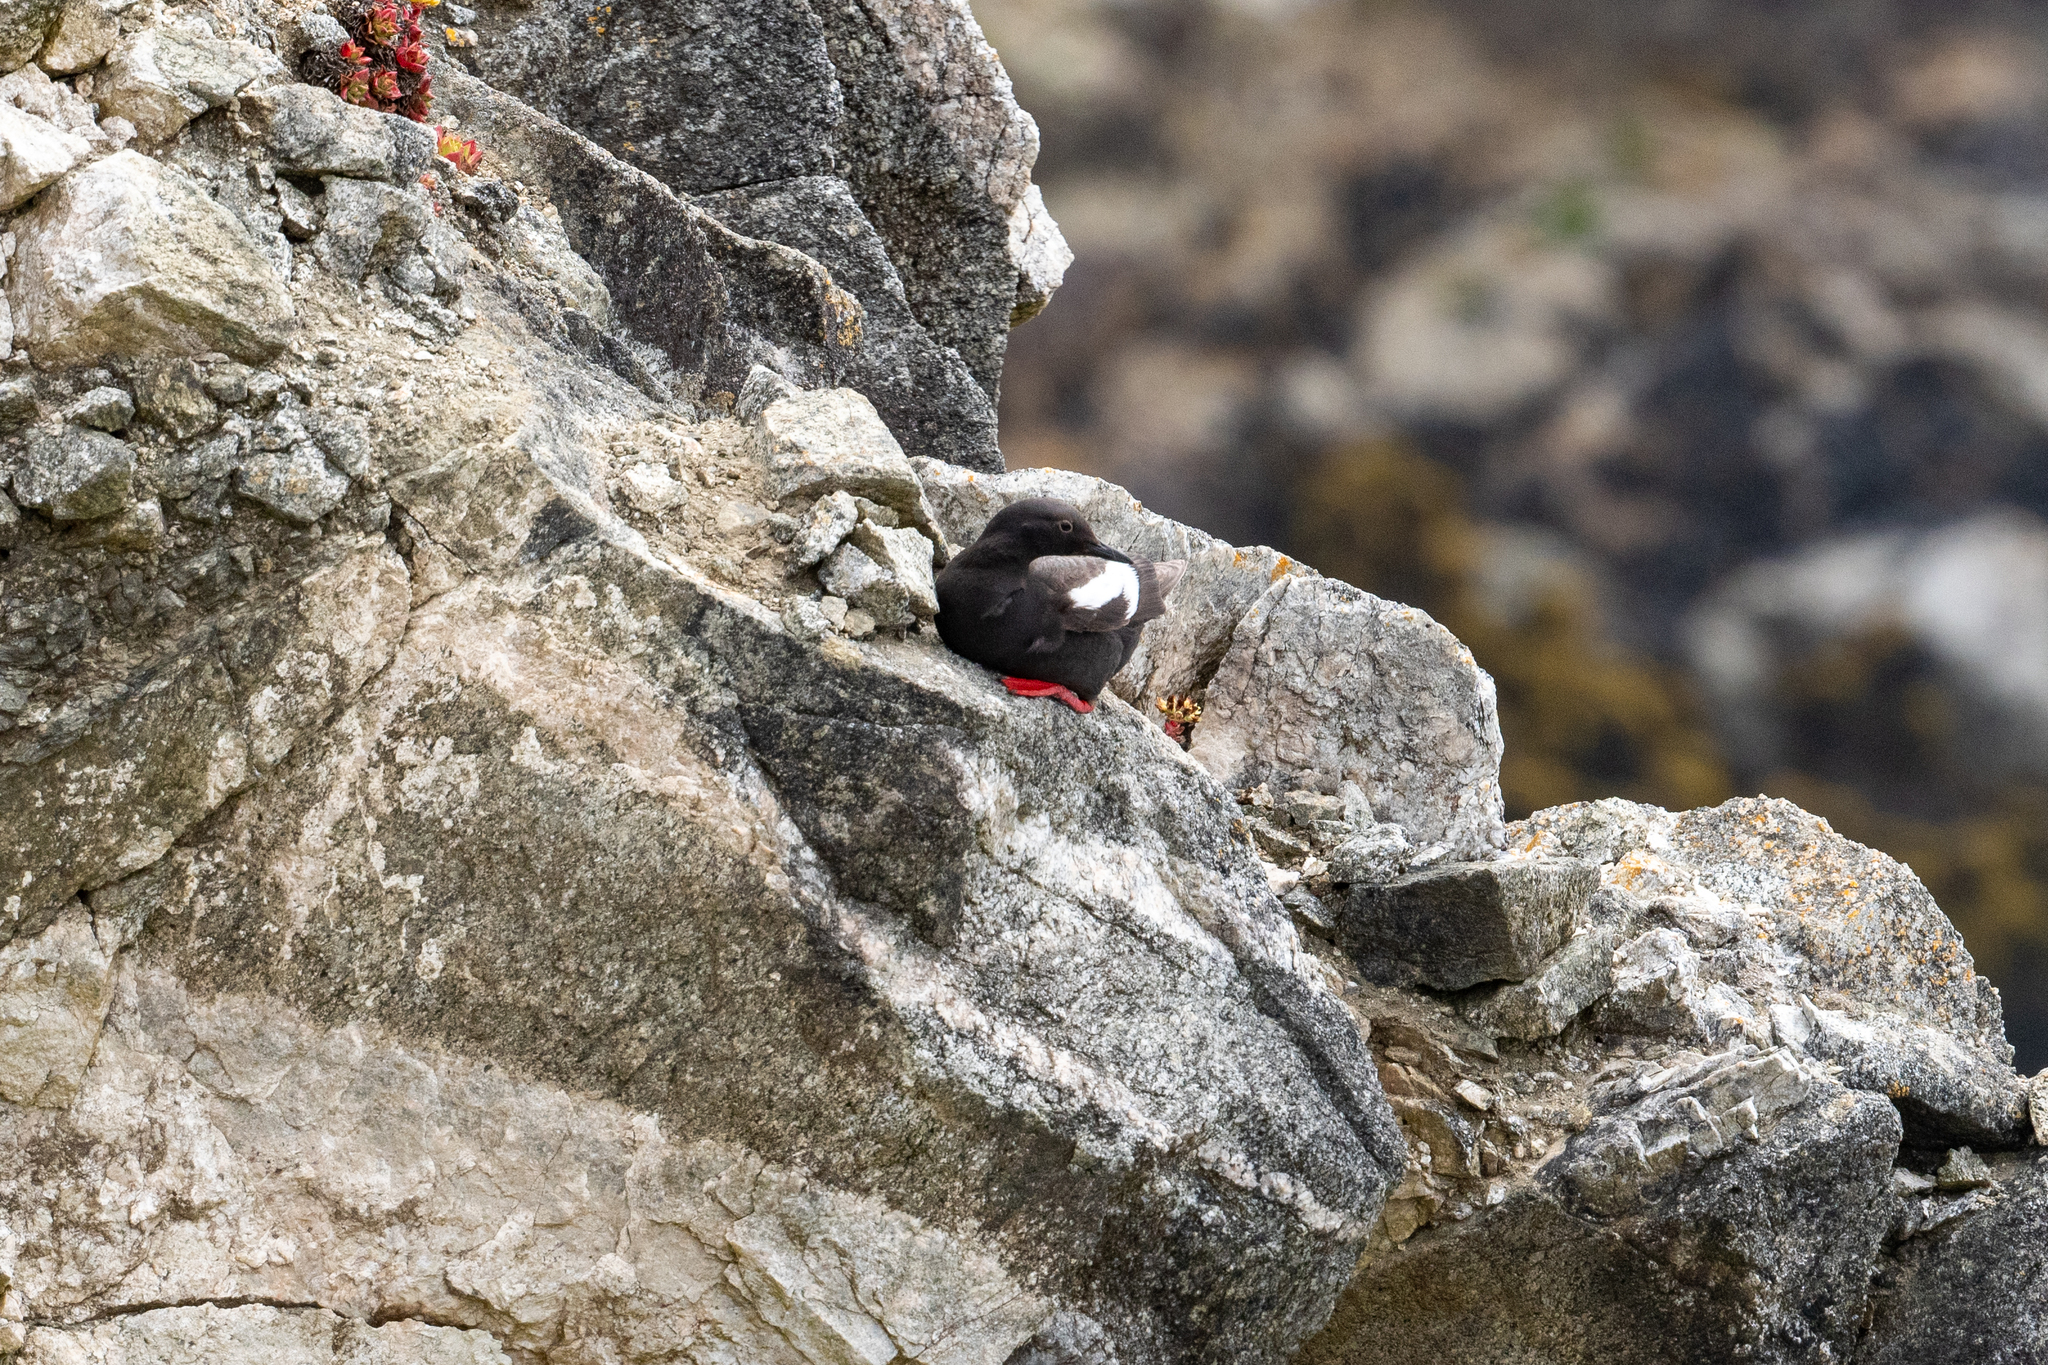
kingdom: Animalia
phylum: Chordata
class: Aves
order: Charadriiformes
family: Alcidae
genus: Cepphus
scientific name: Cepphus columba
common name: Pigeon guillemot
